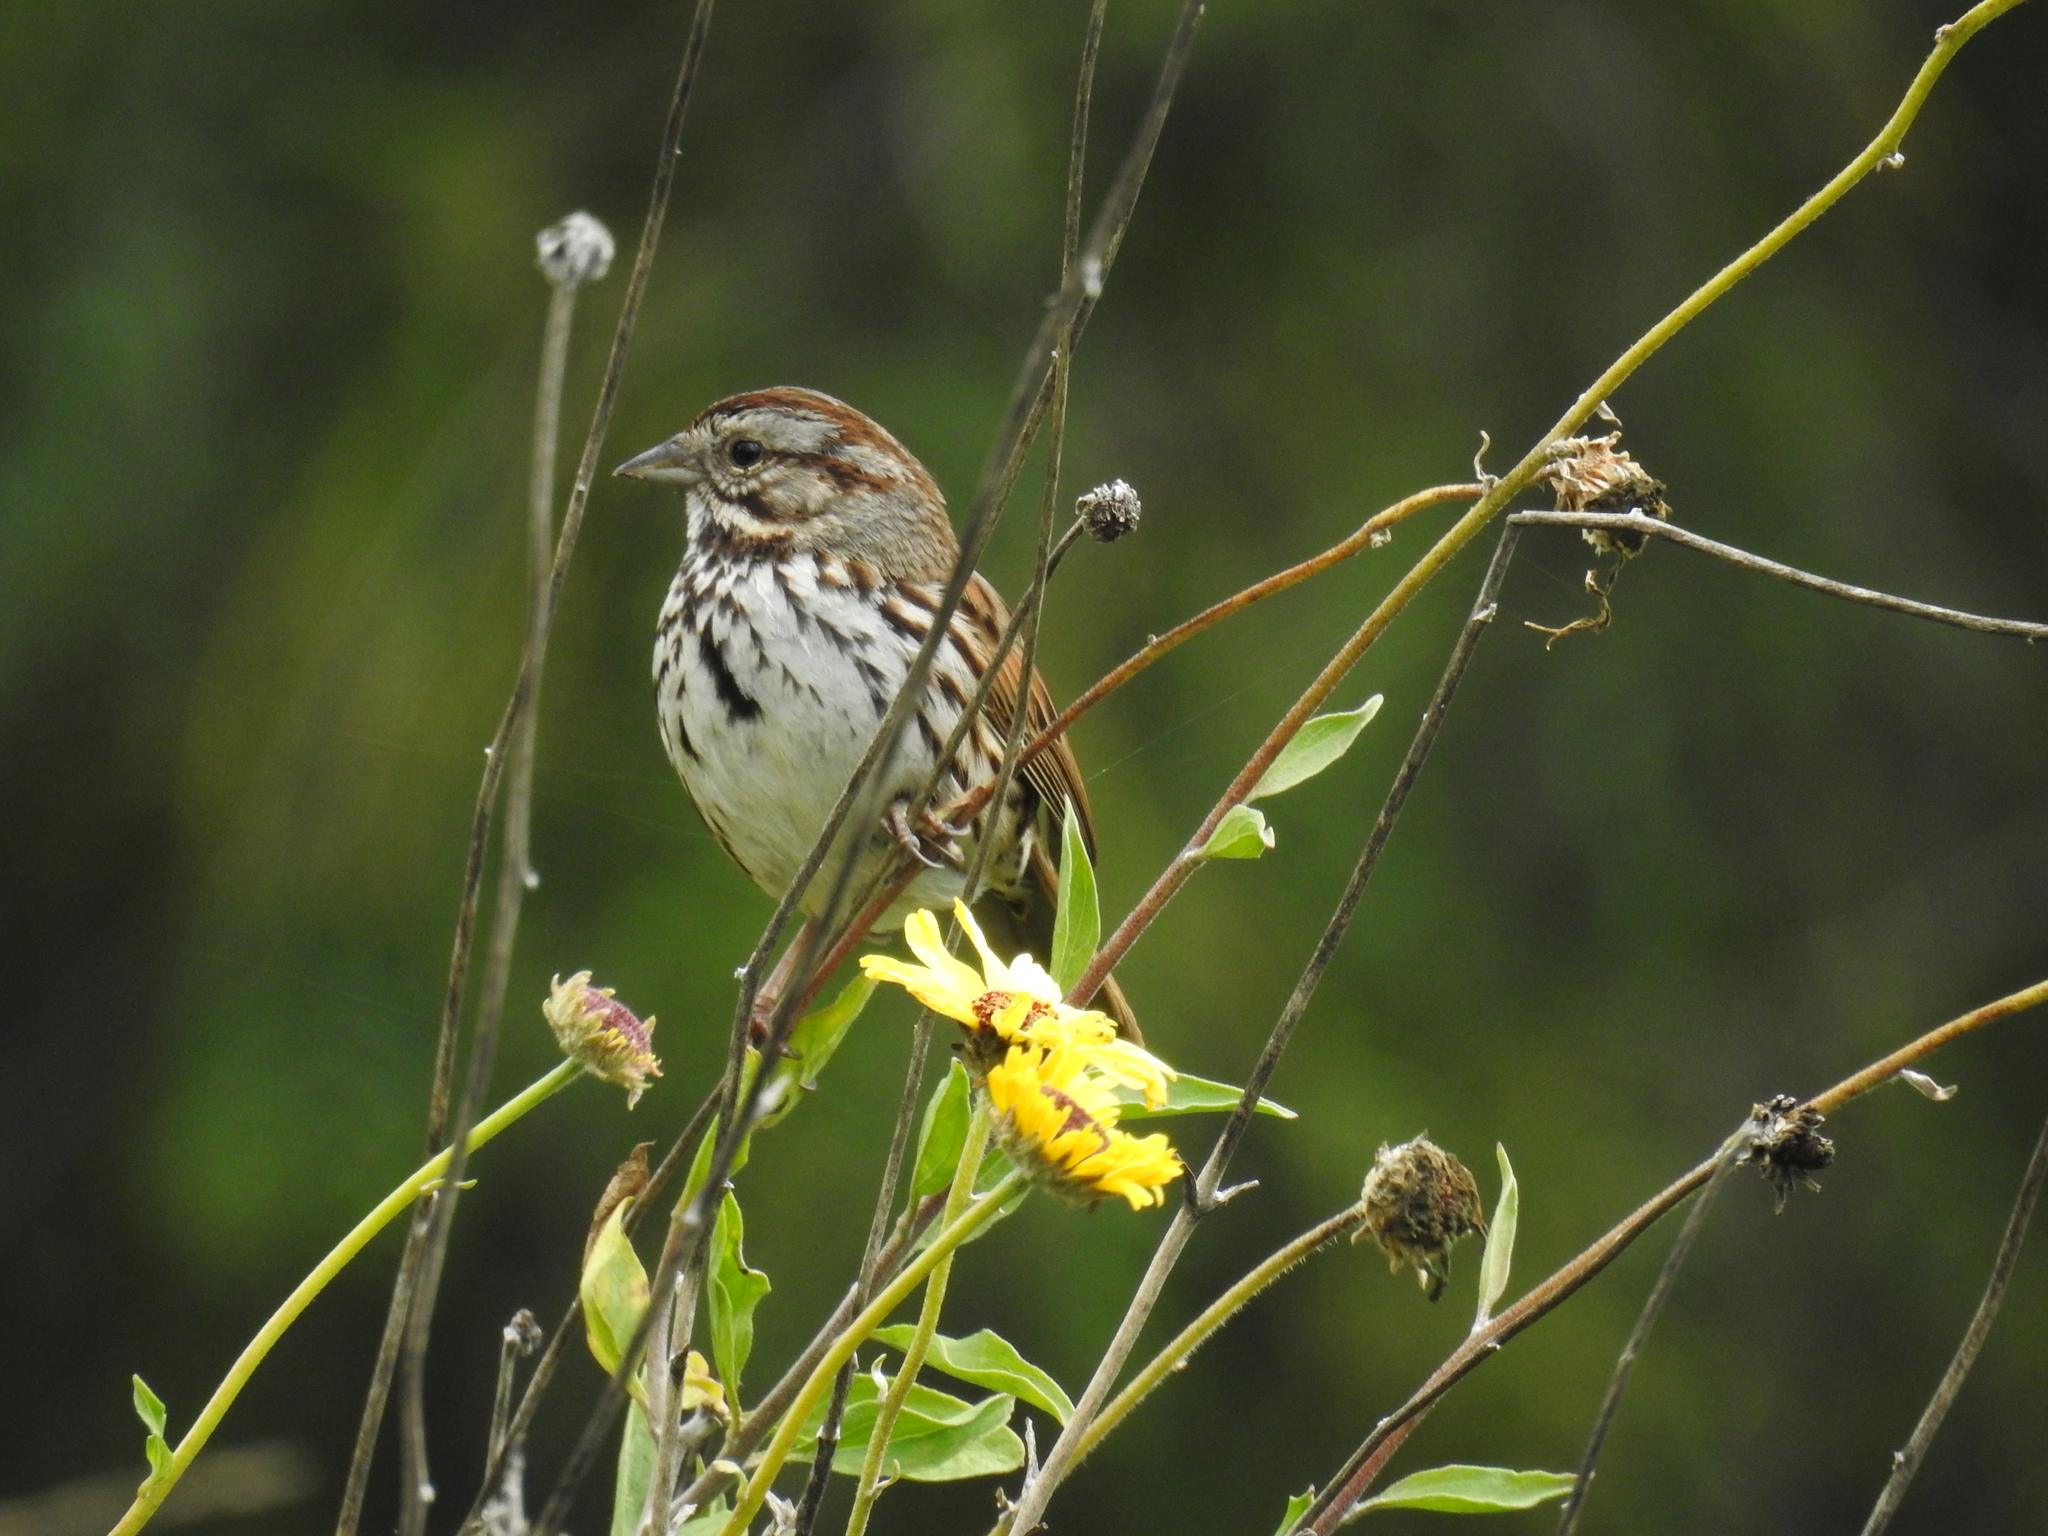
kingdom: Animalia
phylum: Chordata
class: Aves
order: Passeriformes
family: Passerellidae
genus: Melospiza
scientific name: Melospiza melodia
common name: Song sparrow
